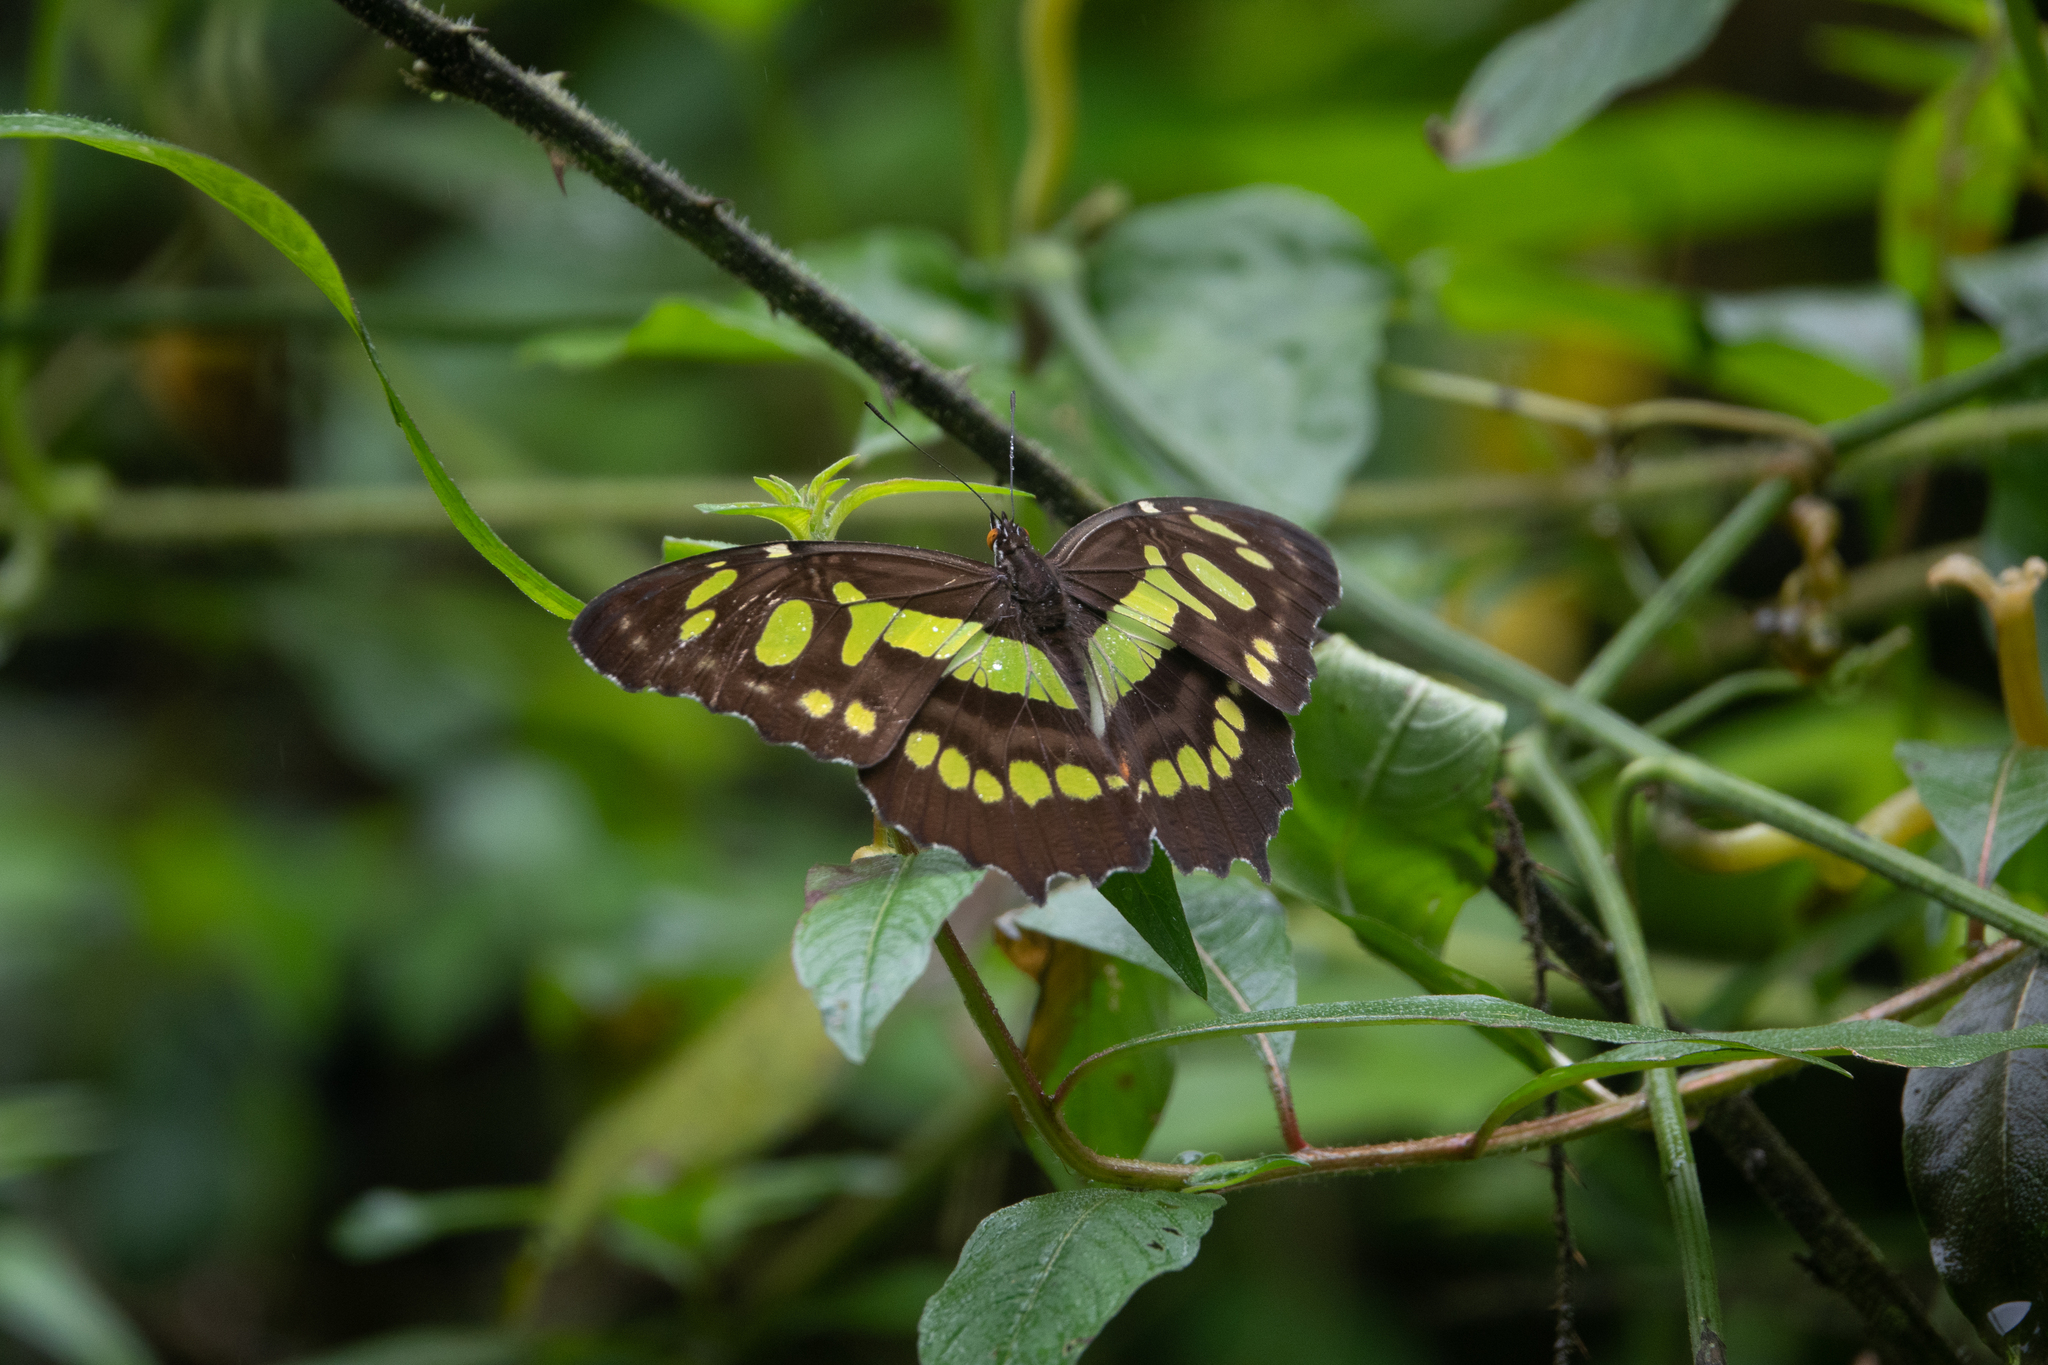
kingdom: Animalia
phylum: Arthropoda
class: Insecta
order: Lepidoptera
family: Nymphalidae
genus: Siproeta
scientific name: Siproeta stelenes
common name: Malachite
